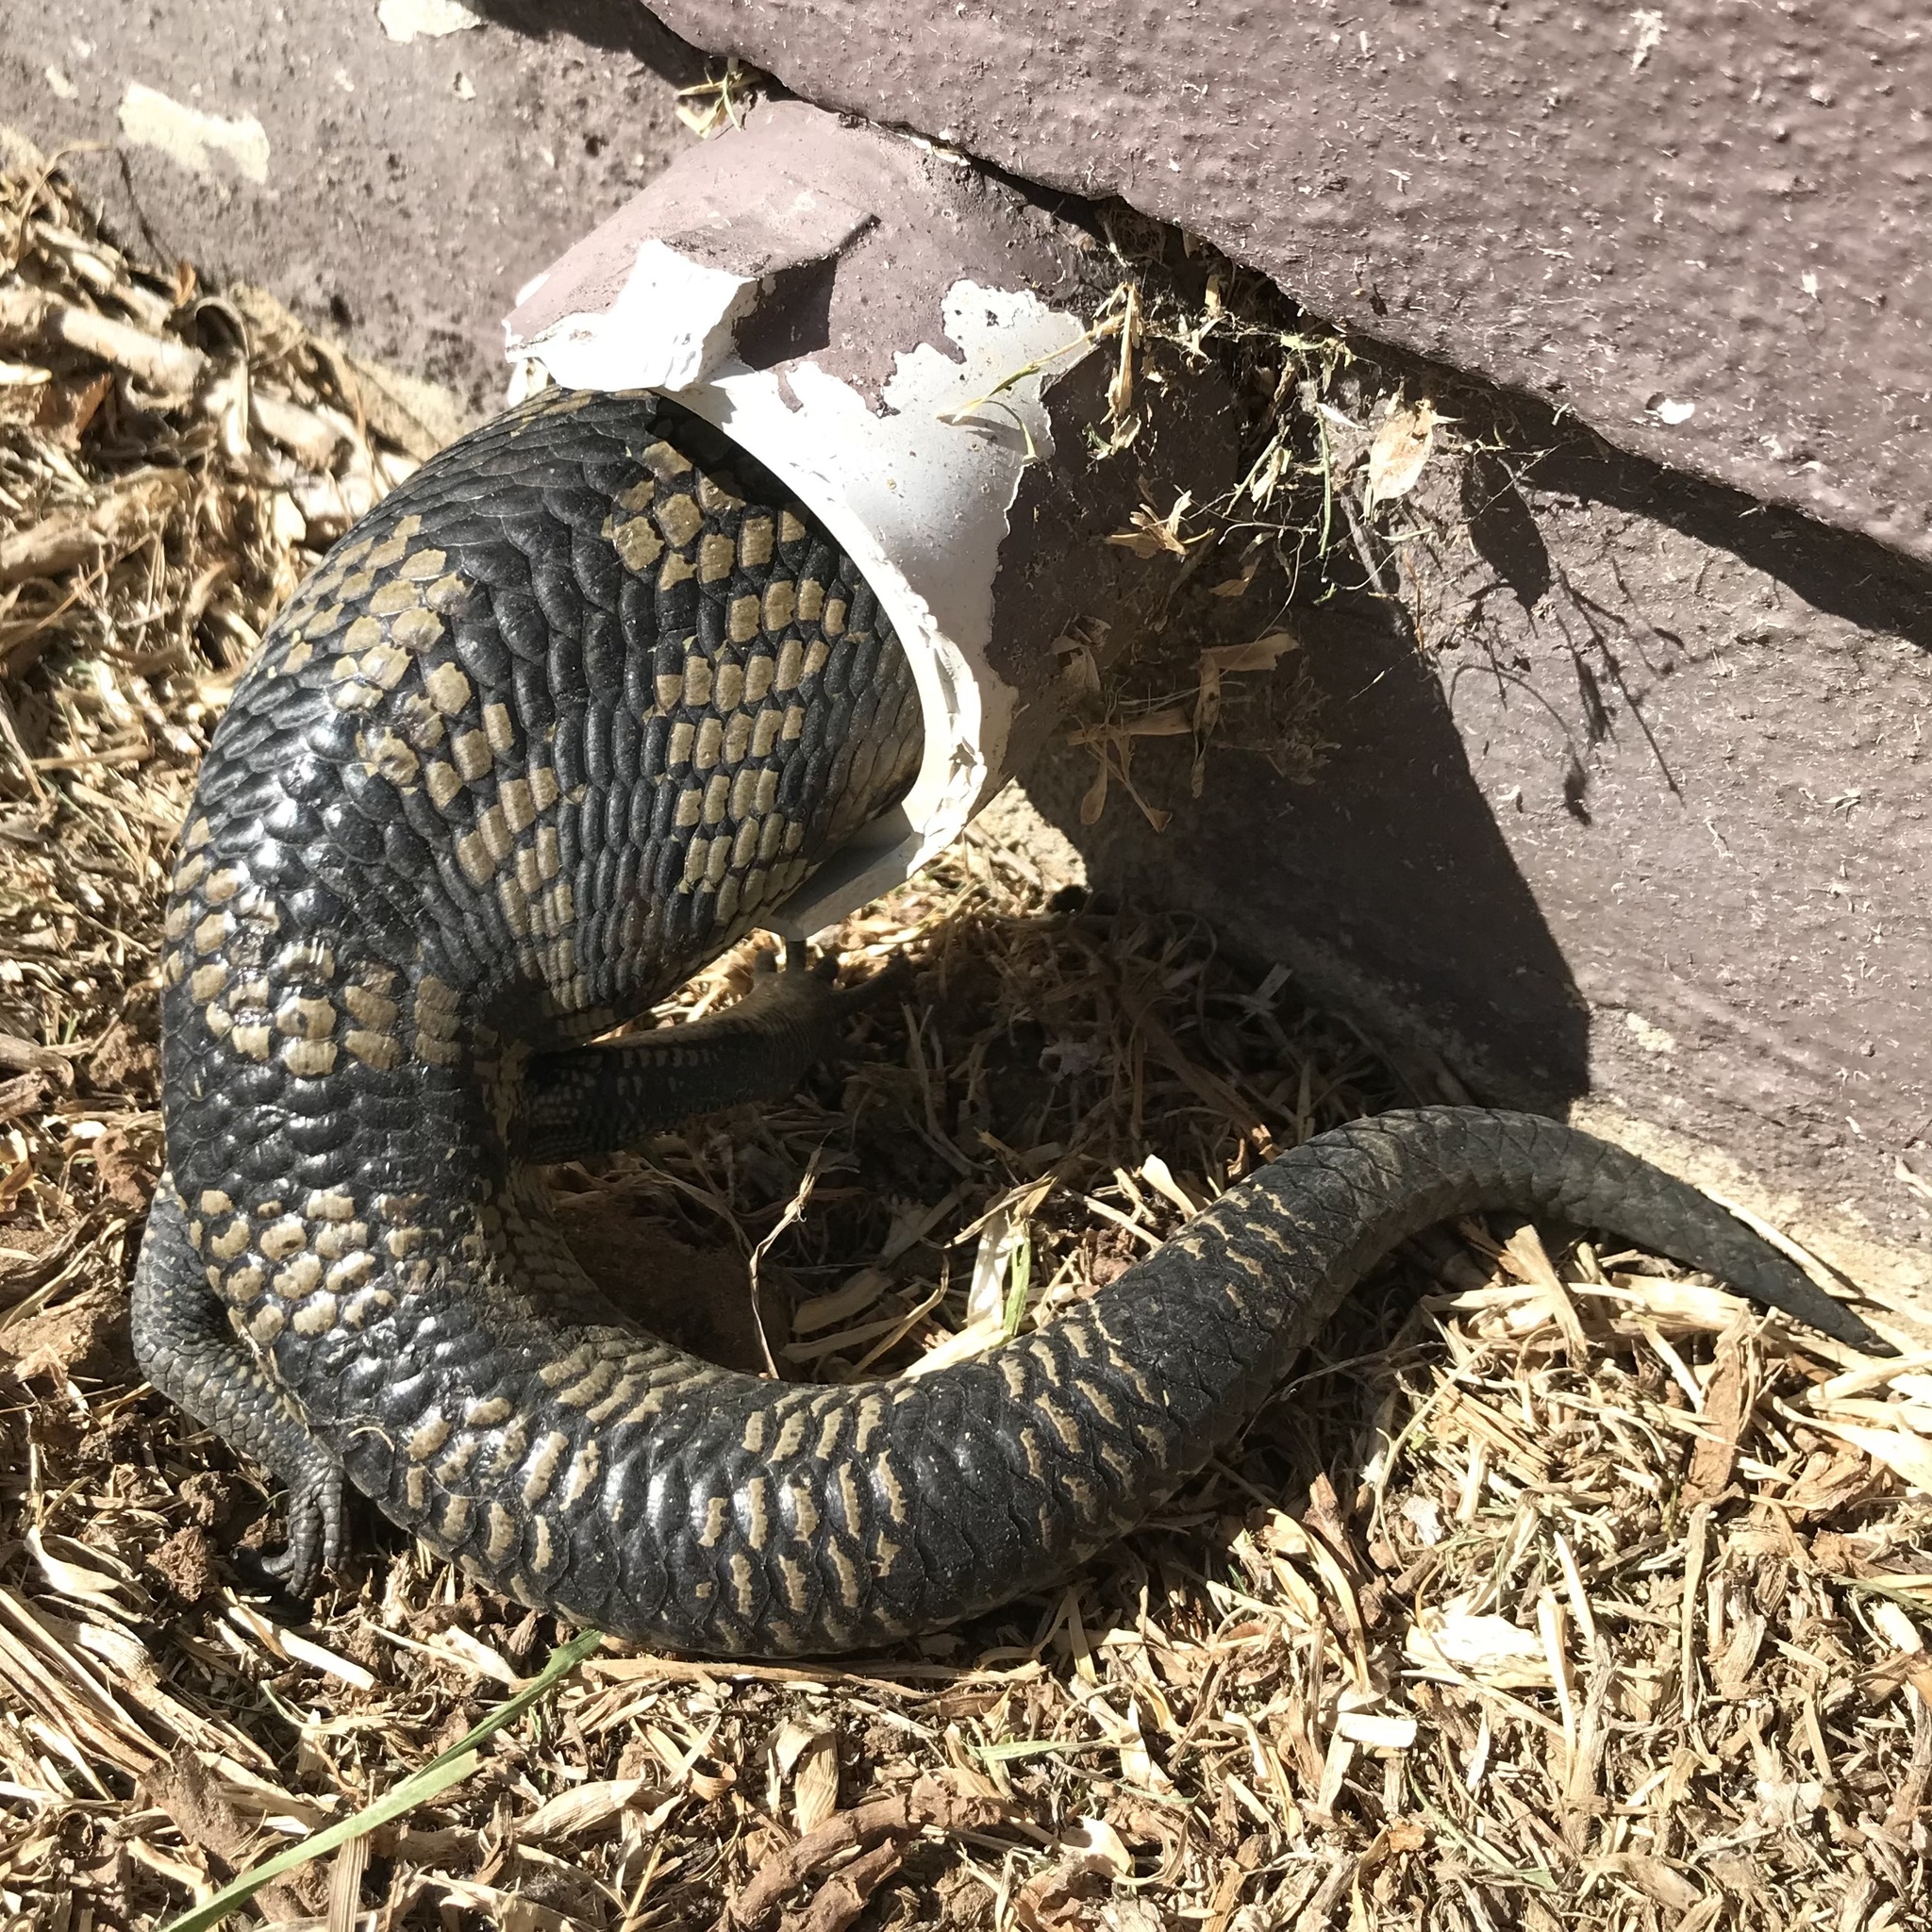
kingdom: Animalia
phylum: Chordata
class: Squamata
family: Scincidae
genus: Tiliqua
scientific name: Tiliqua scincoides
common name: Common bluetongue
